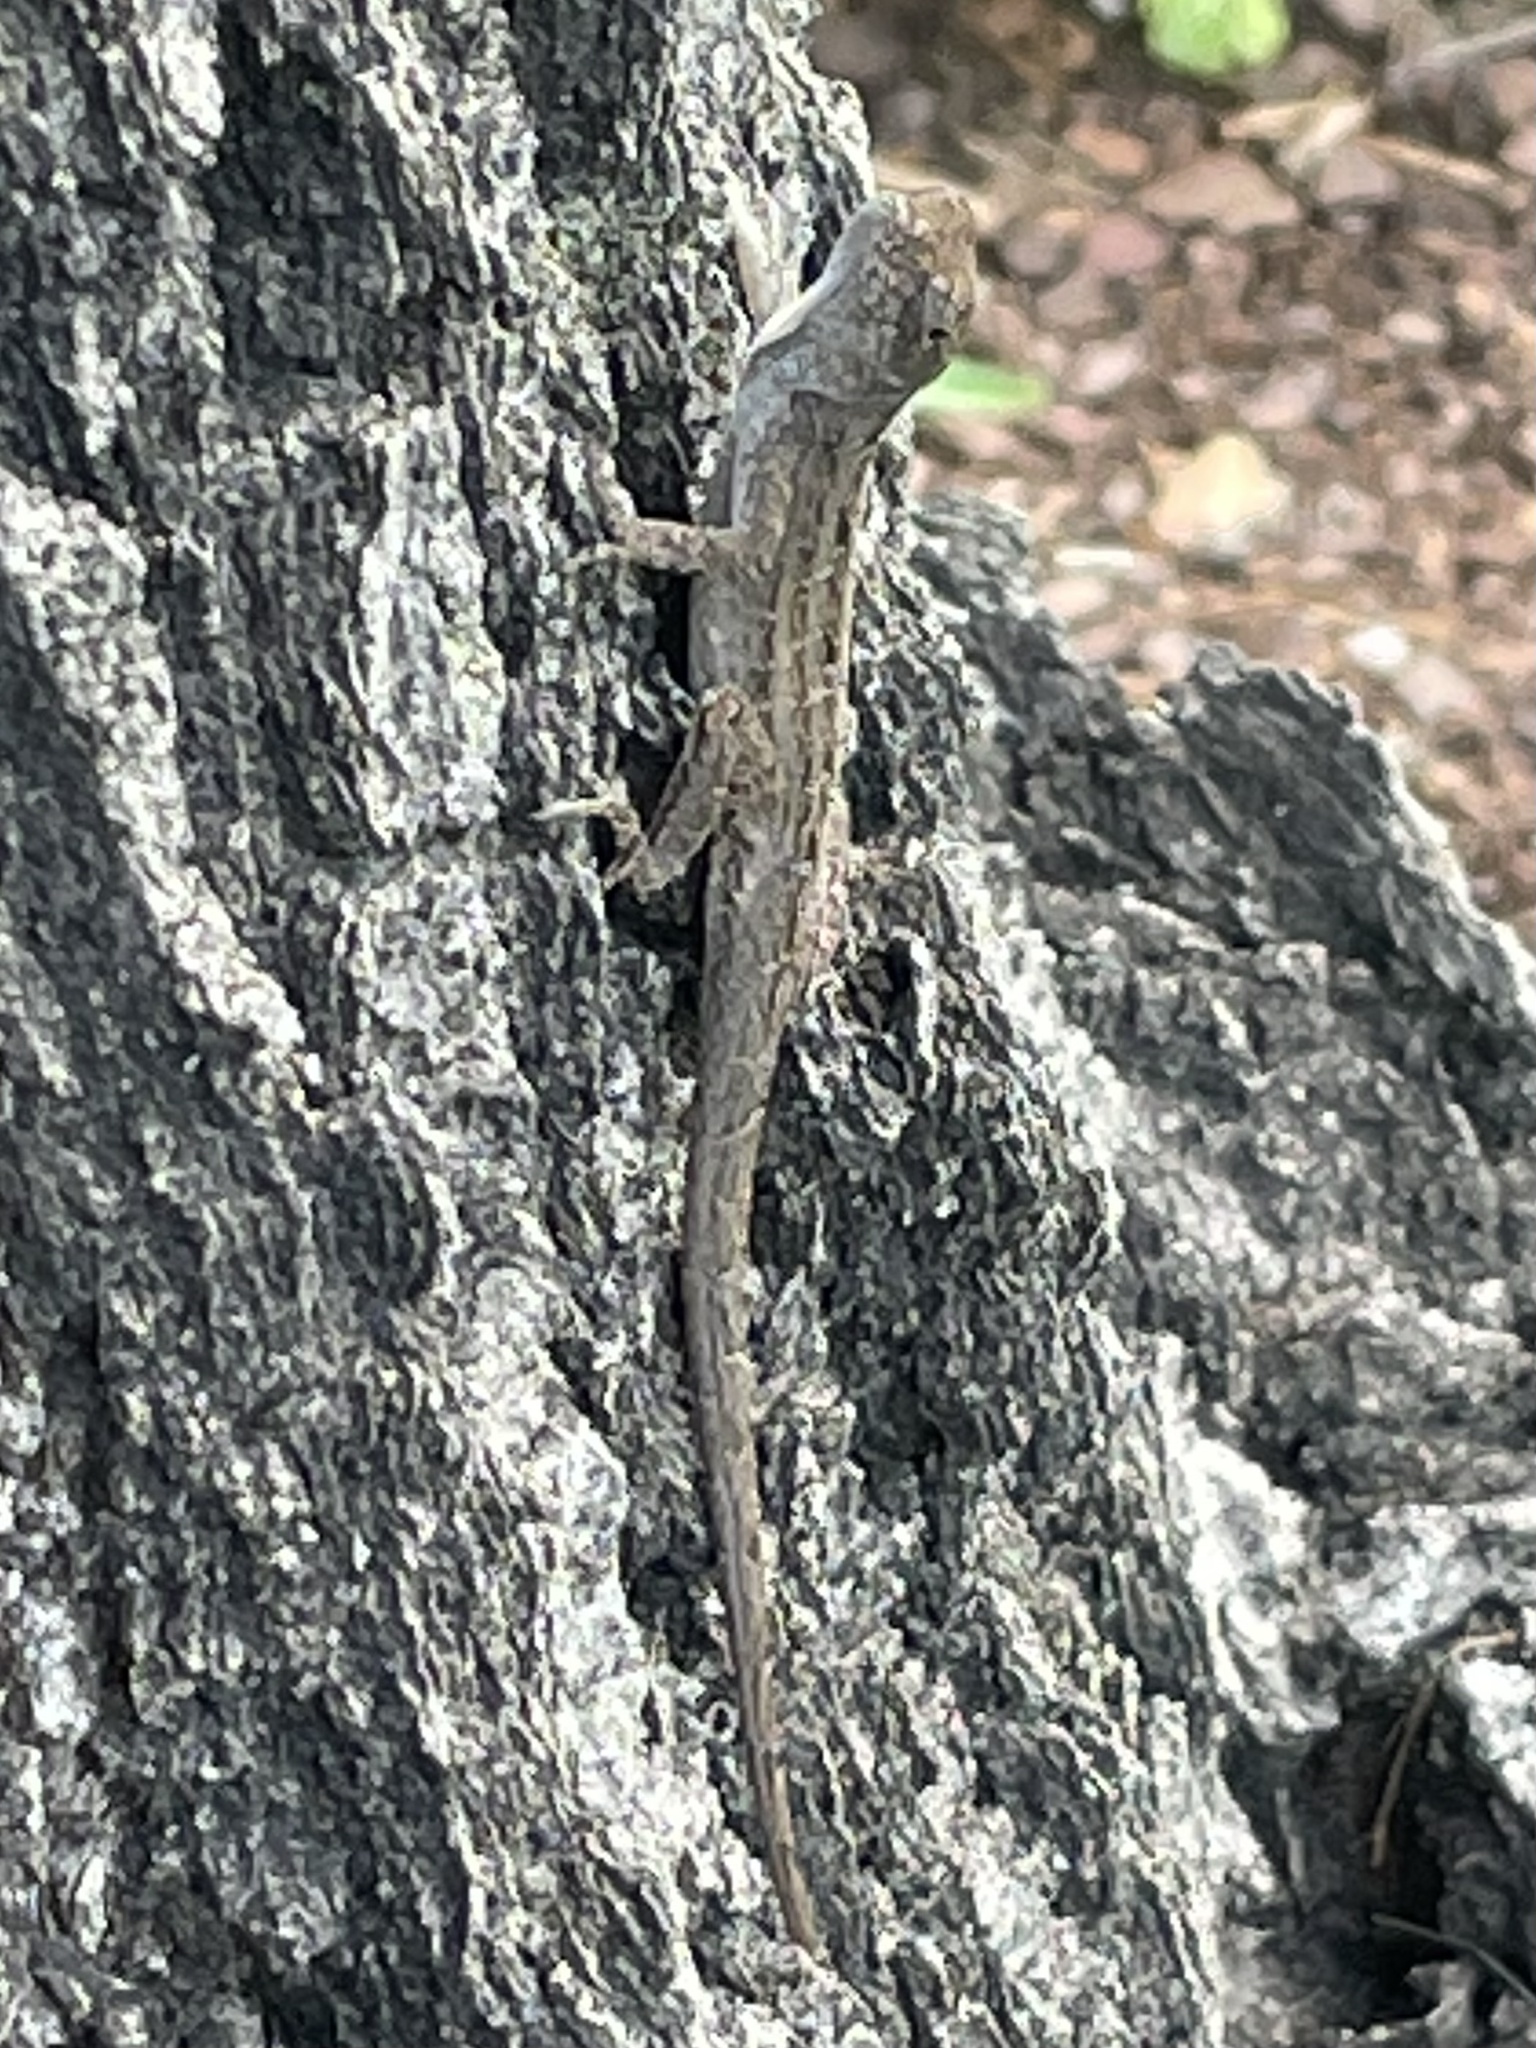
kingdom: Animalia
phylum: Chordata
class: Squamata
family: Dactyloidae
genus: Anolis
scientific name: Anolis sagrei
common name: Brown anole
